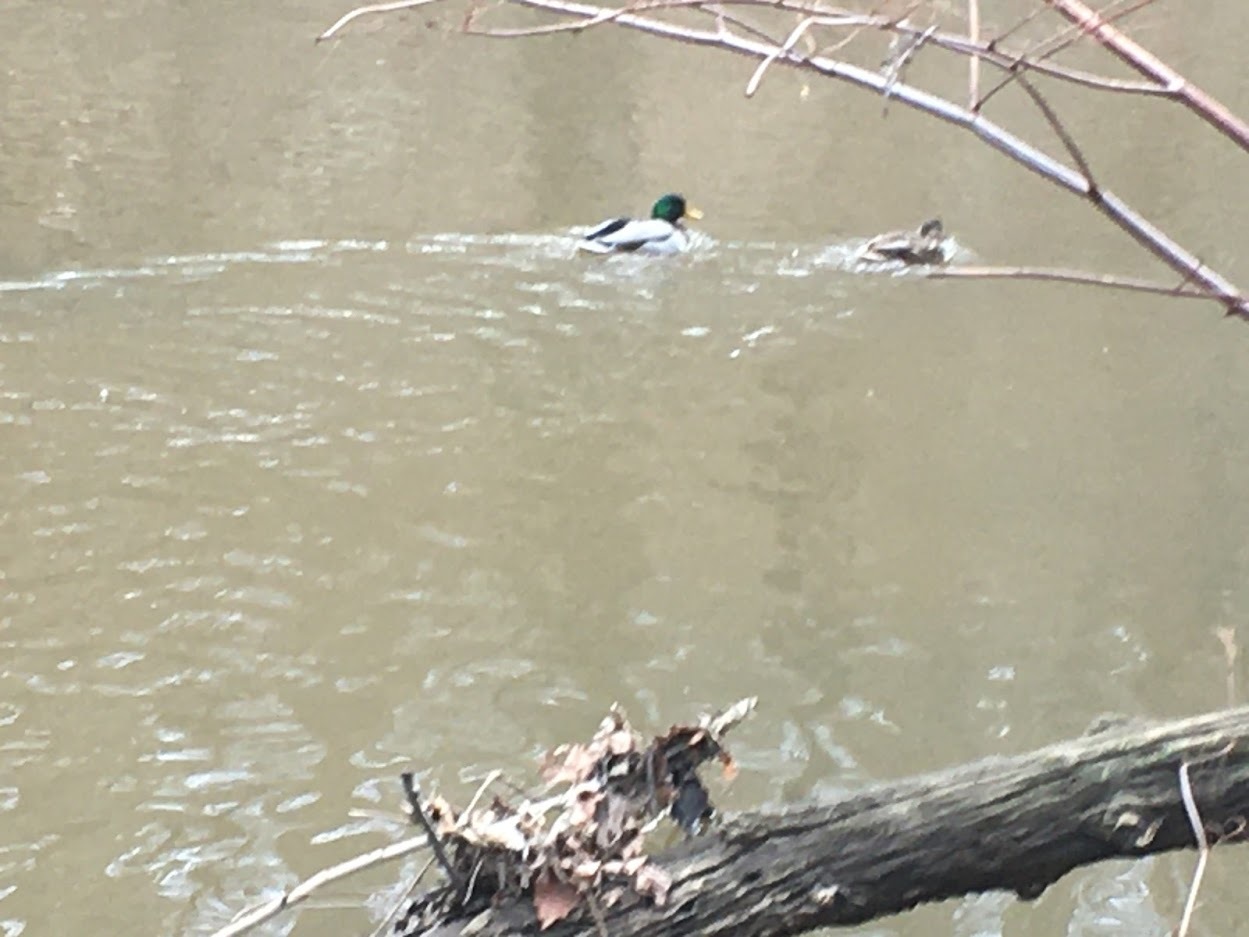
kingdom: Animalia
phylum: Chordata
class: Aves
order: Anseriformes
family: Anatidae
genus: Anas
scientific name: Anas platyrhynchos
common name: Mallard
